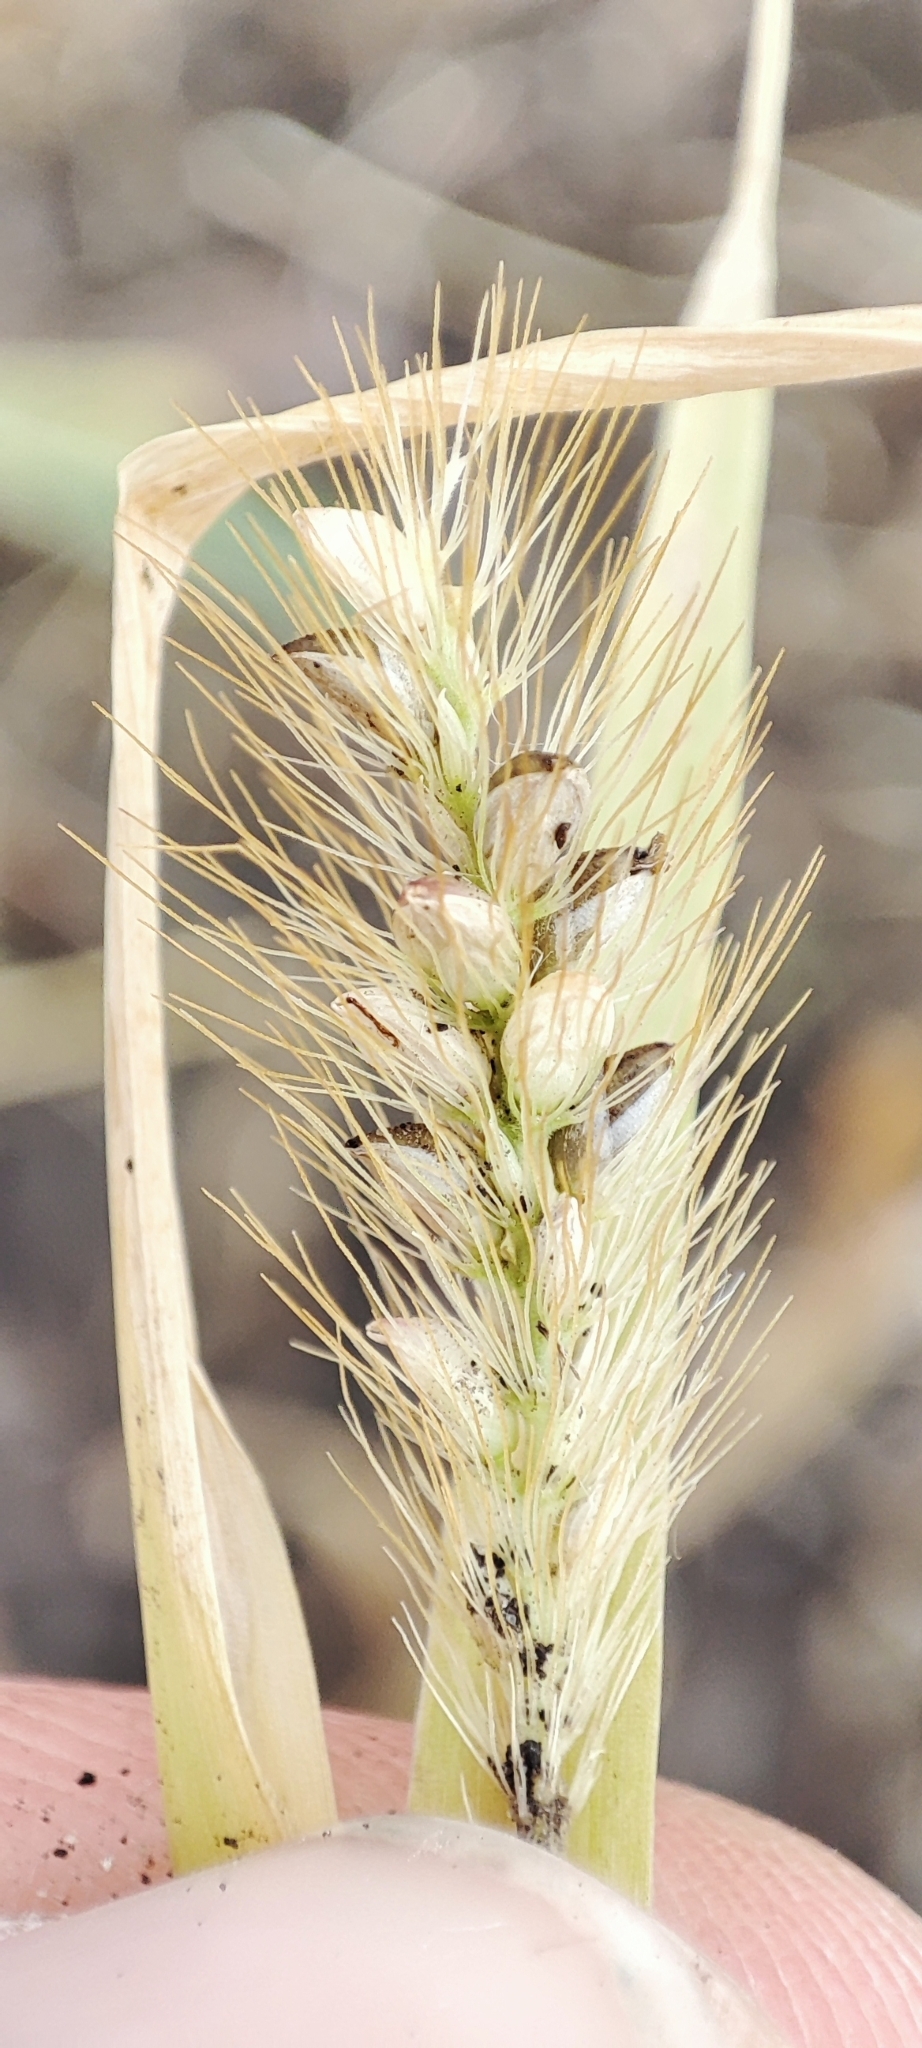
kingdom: Plantae
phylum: Tracheophyta
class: Liliopsida
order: Poales
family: Poaceae
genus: Setaria
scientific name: Setaria pumila
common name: Yellow bristle-grass
